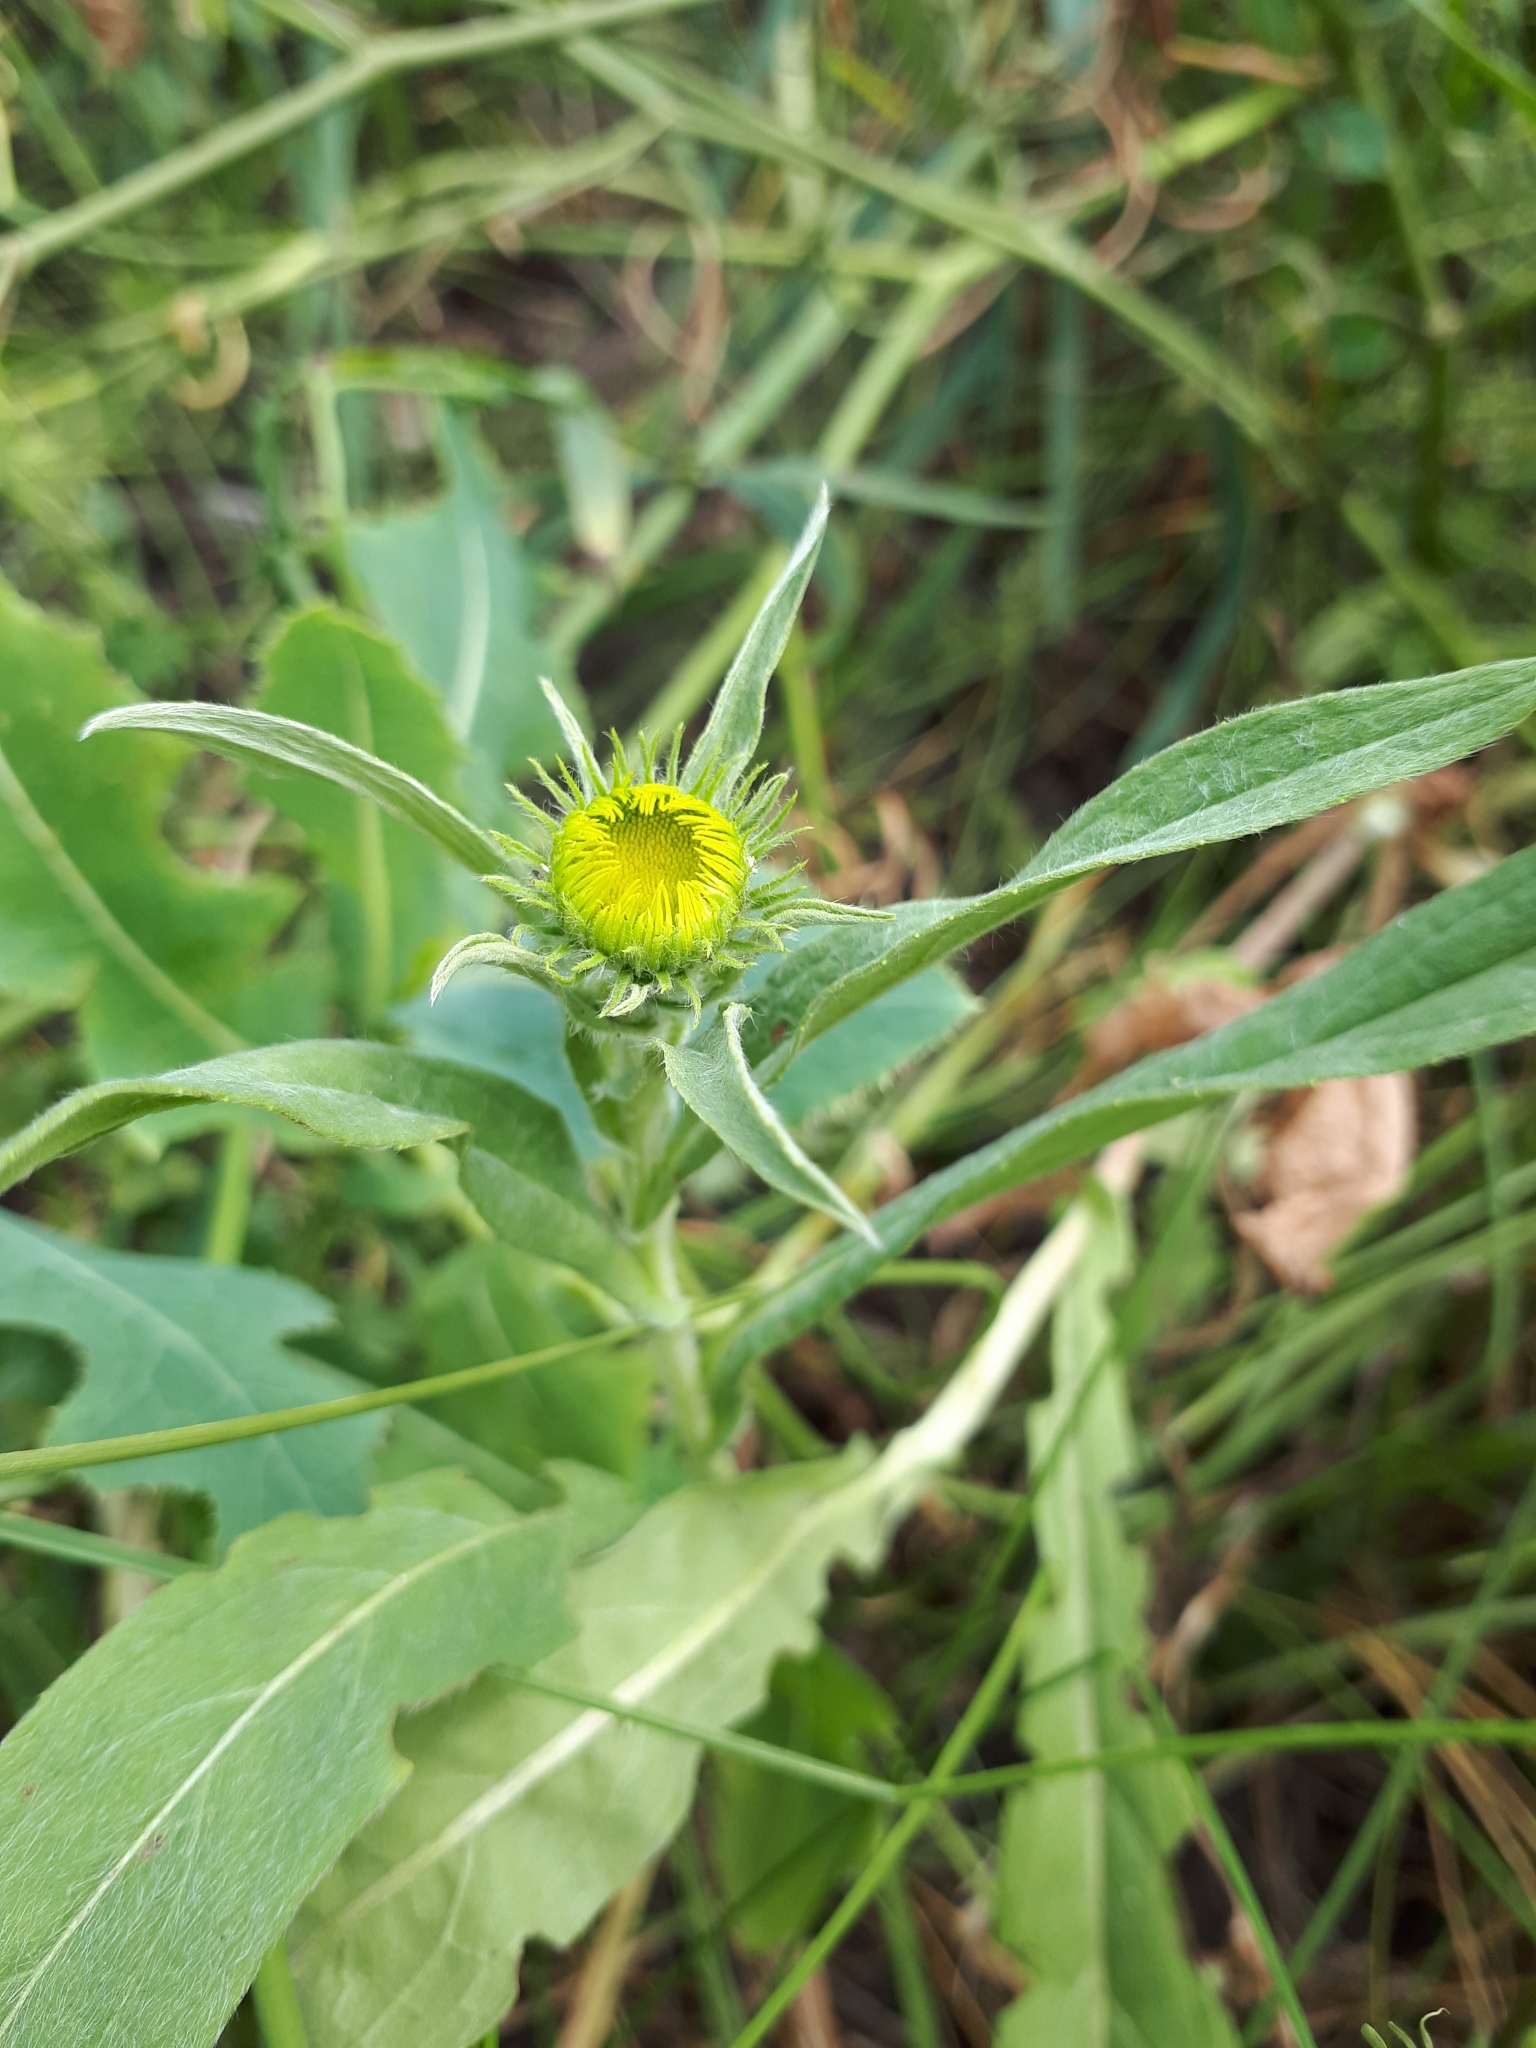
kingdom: Plantae
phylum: Tracheophyta
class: Magnoliopsida
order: Asterales
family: Asteraceae
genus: Pentanema
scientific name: Pentanema britannicum
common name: British elecampane
